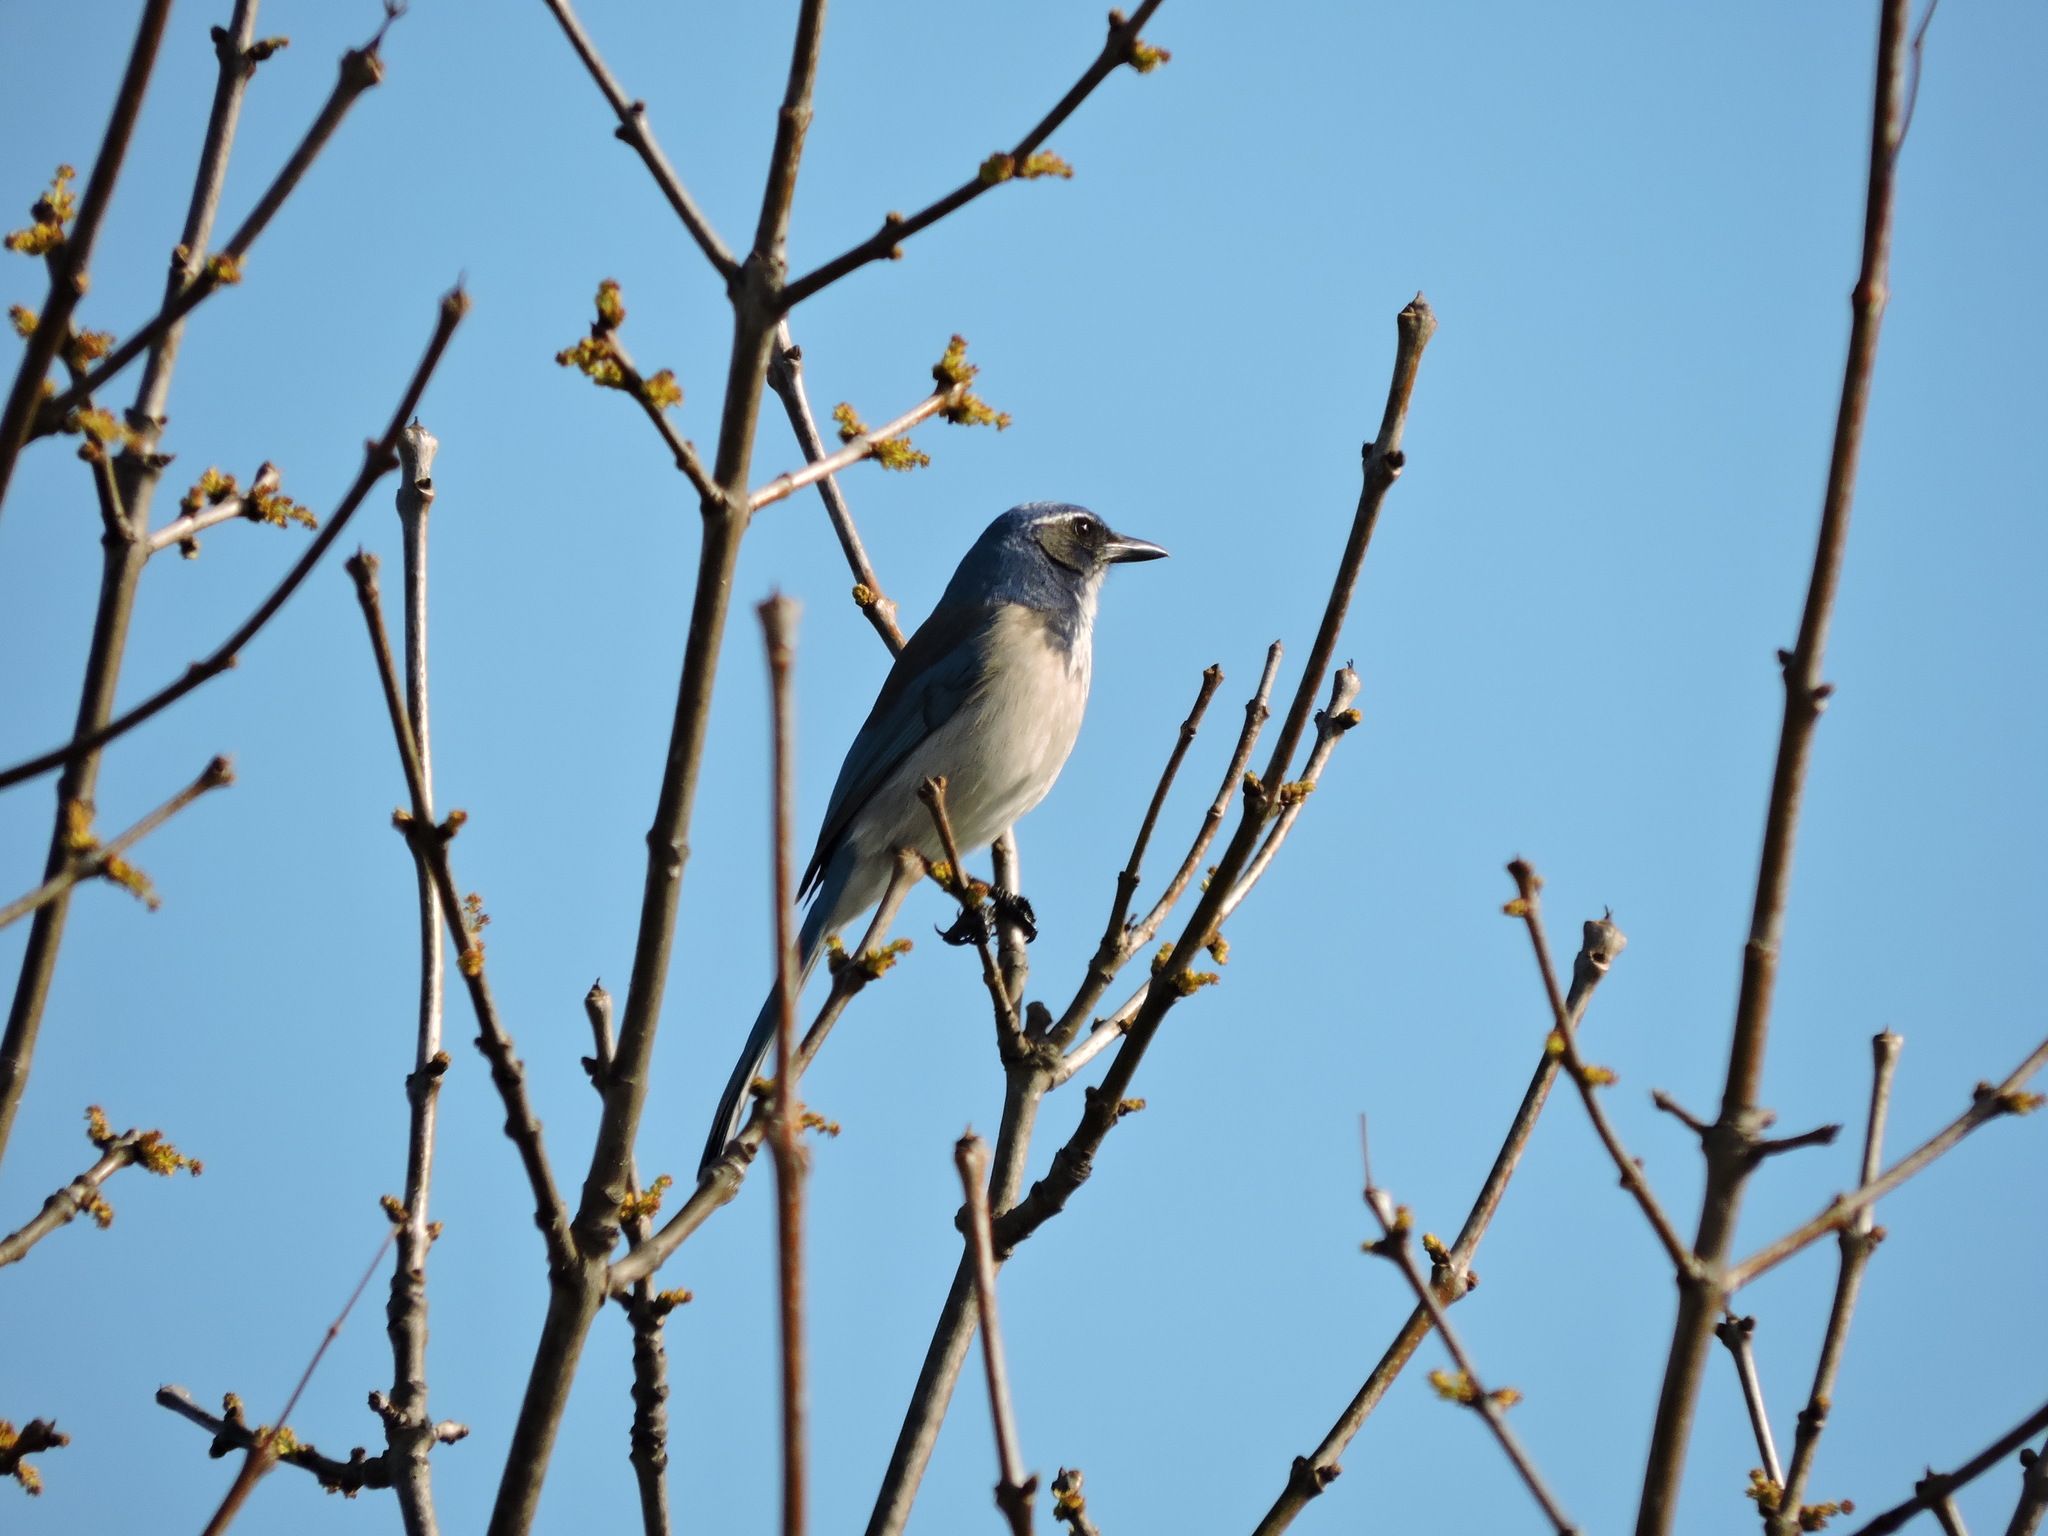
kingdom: Animalia
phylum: Chordata
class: Aves
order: Passeriformes
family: Corvidae
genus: Aphelocoma
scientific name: Aphelocoma californica
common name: California scrub-jay
